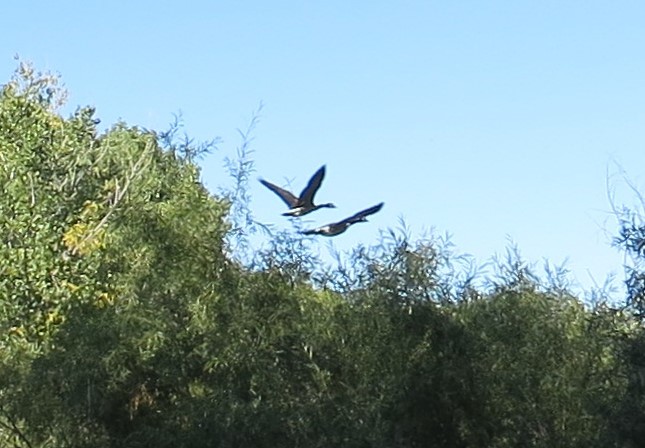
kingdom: Animalia
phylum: Chordata
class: Aves
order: Anseriformes
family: Anatidae
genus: Branta
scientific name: Branta canadensis
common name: Canada goose
